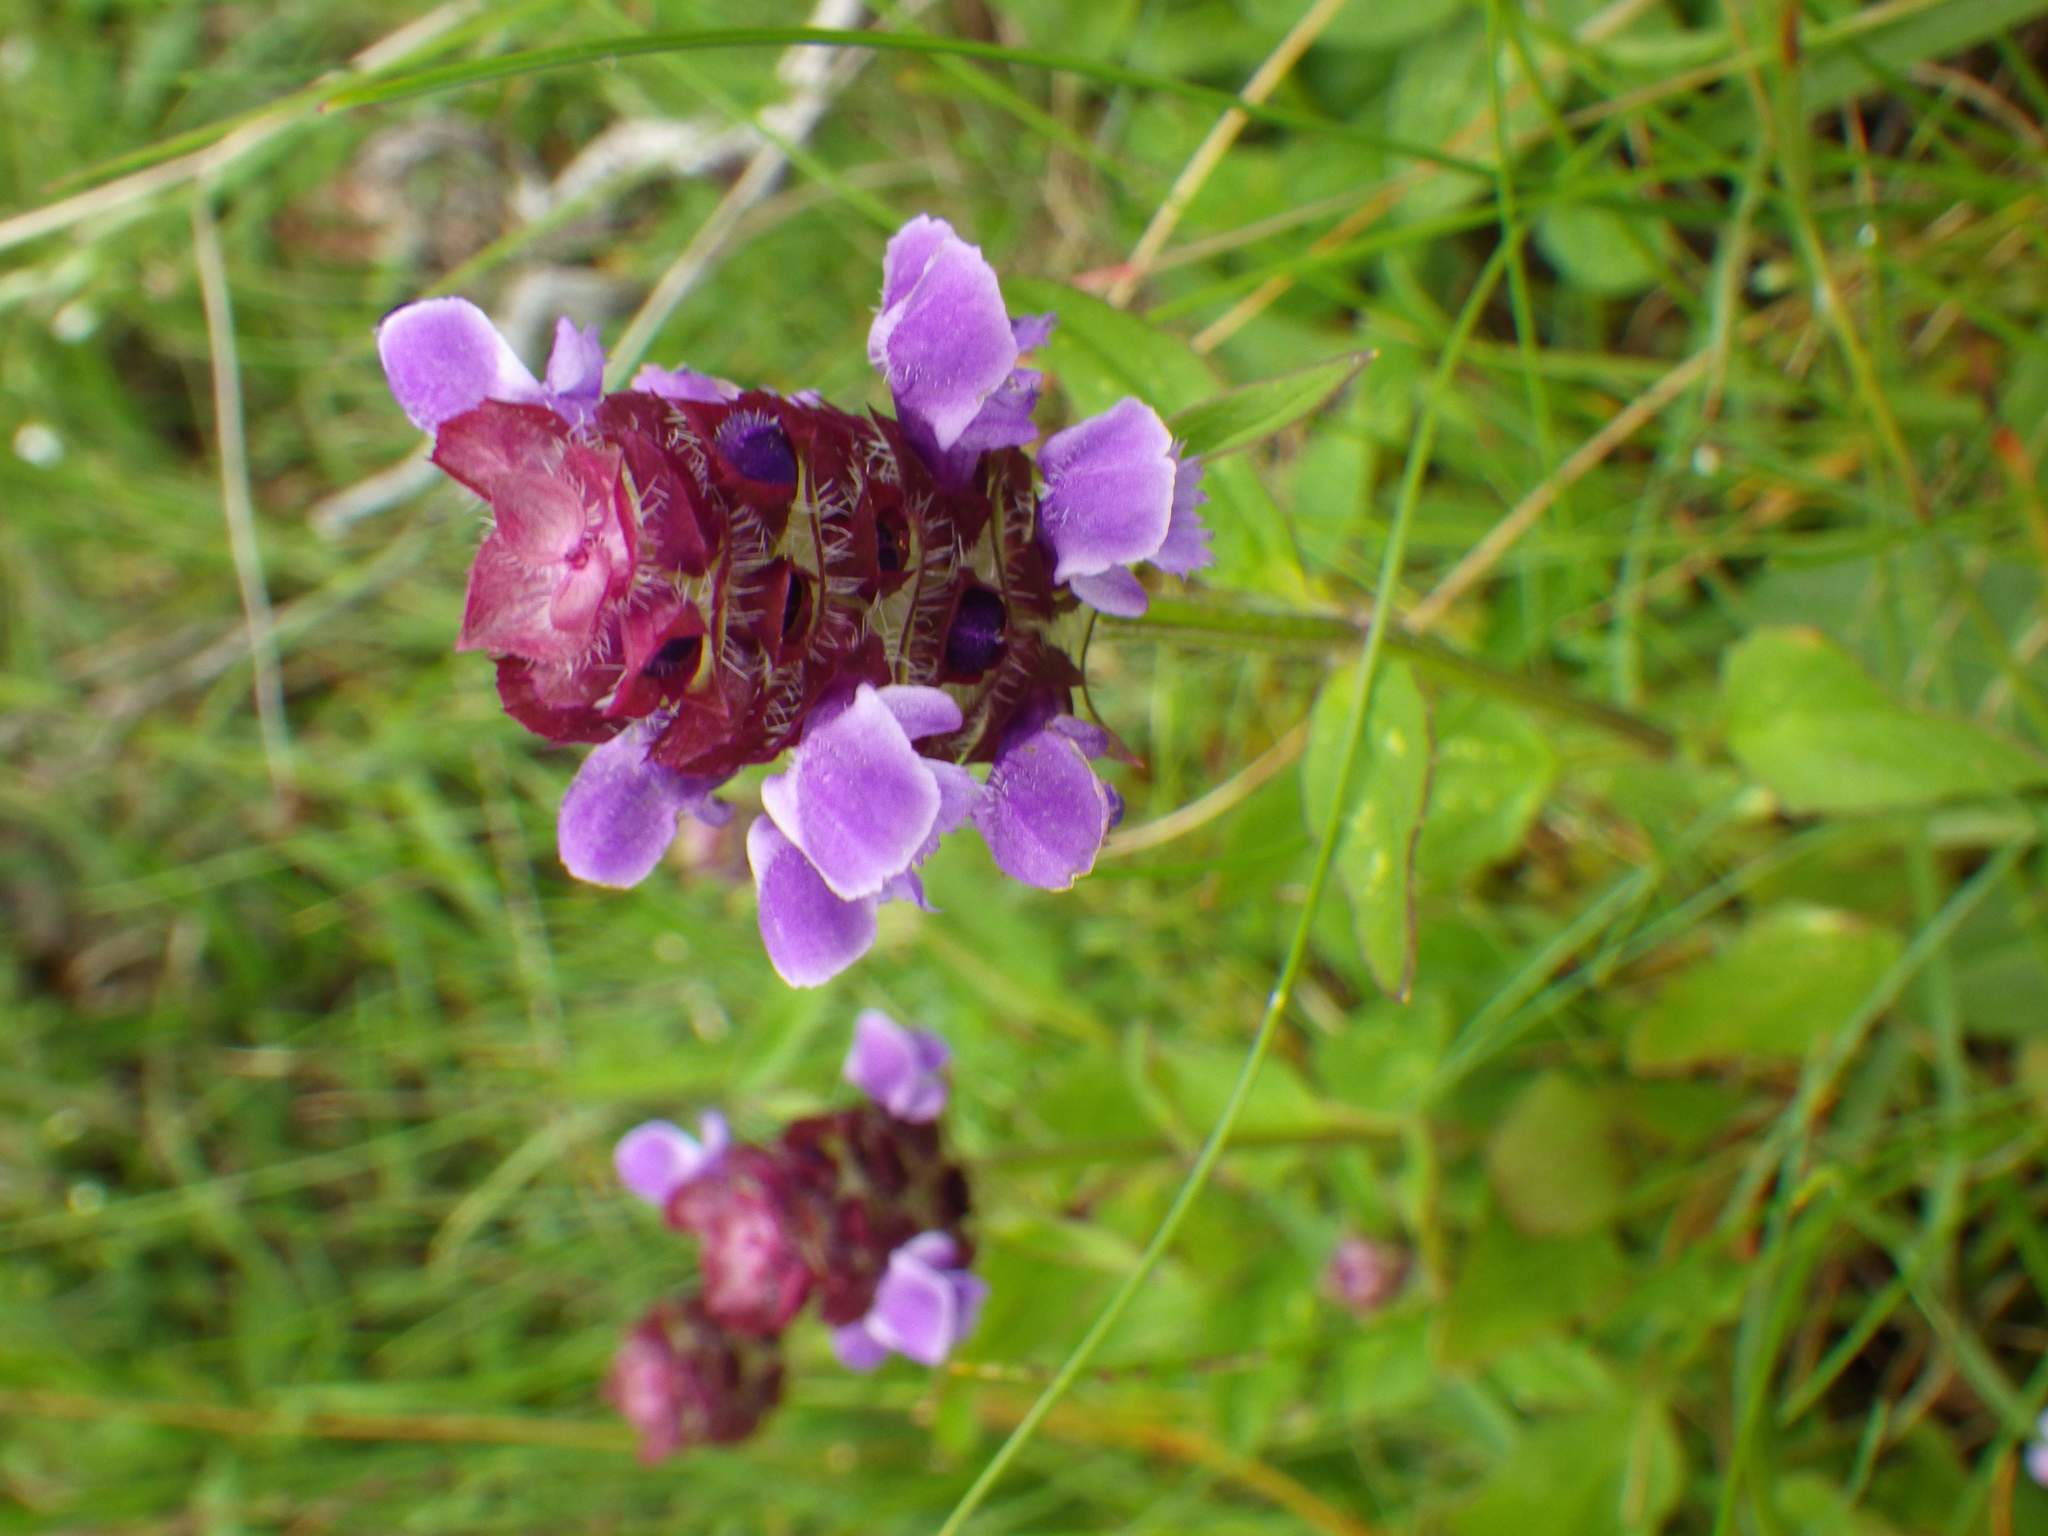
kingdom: Plantae
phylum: Tracheophyta
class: Magnoliopsida
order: Lamiales
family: Lamiaceae
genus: Prunella
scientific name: Prunella vulgaris
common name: Heal-all
